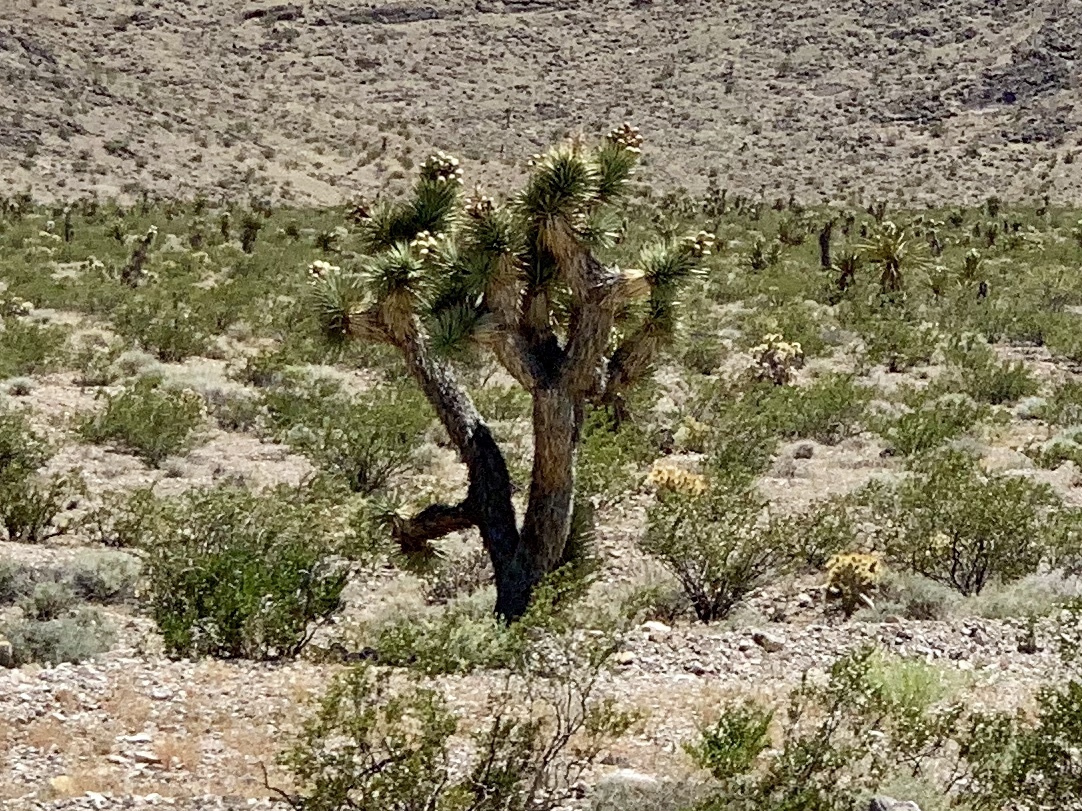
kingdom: Plantae
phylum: Tracheophyta
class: Liliopsida
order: Asparagales
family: Asparagaceae
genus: Yucca
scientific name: Yucca brevifolia
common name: Joshua tree
